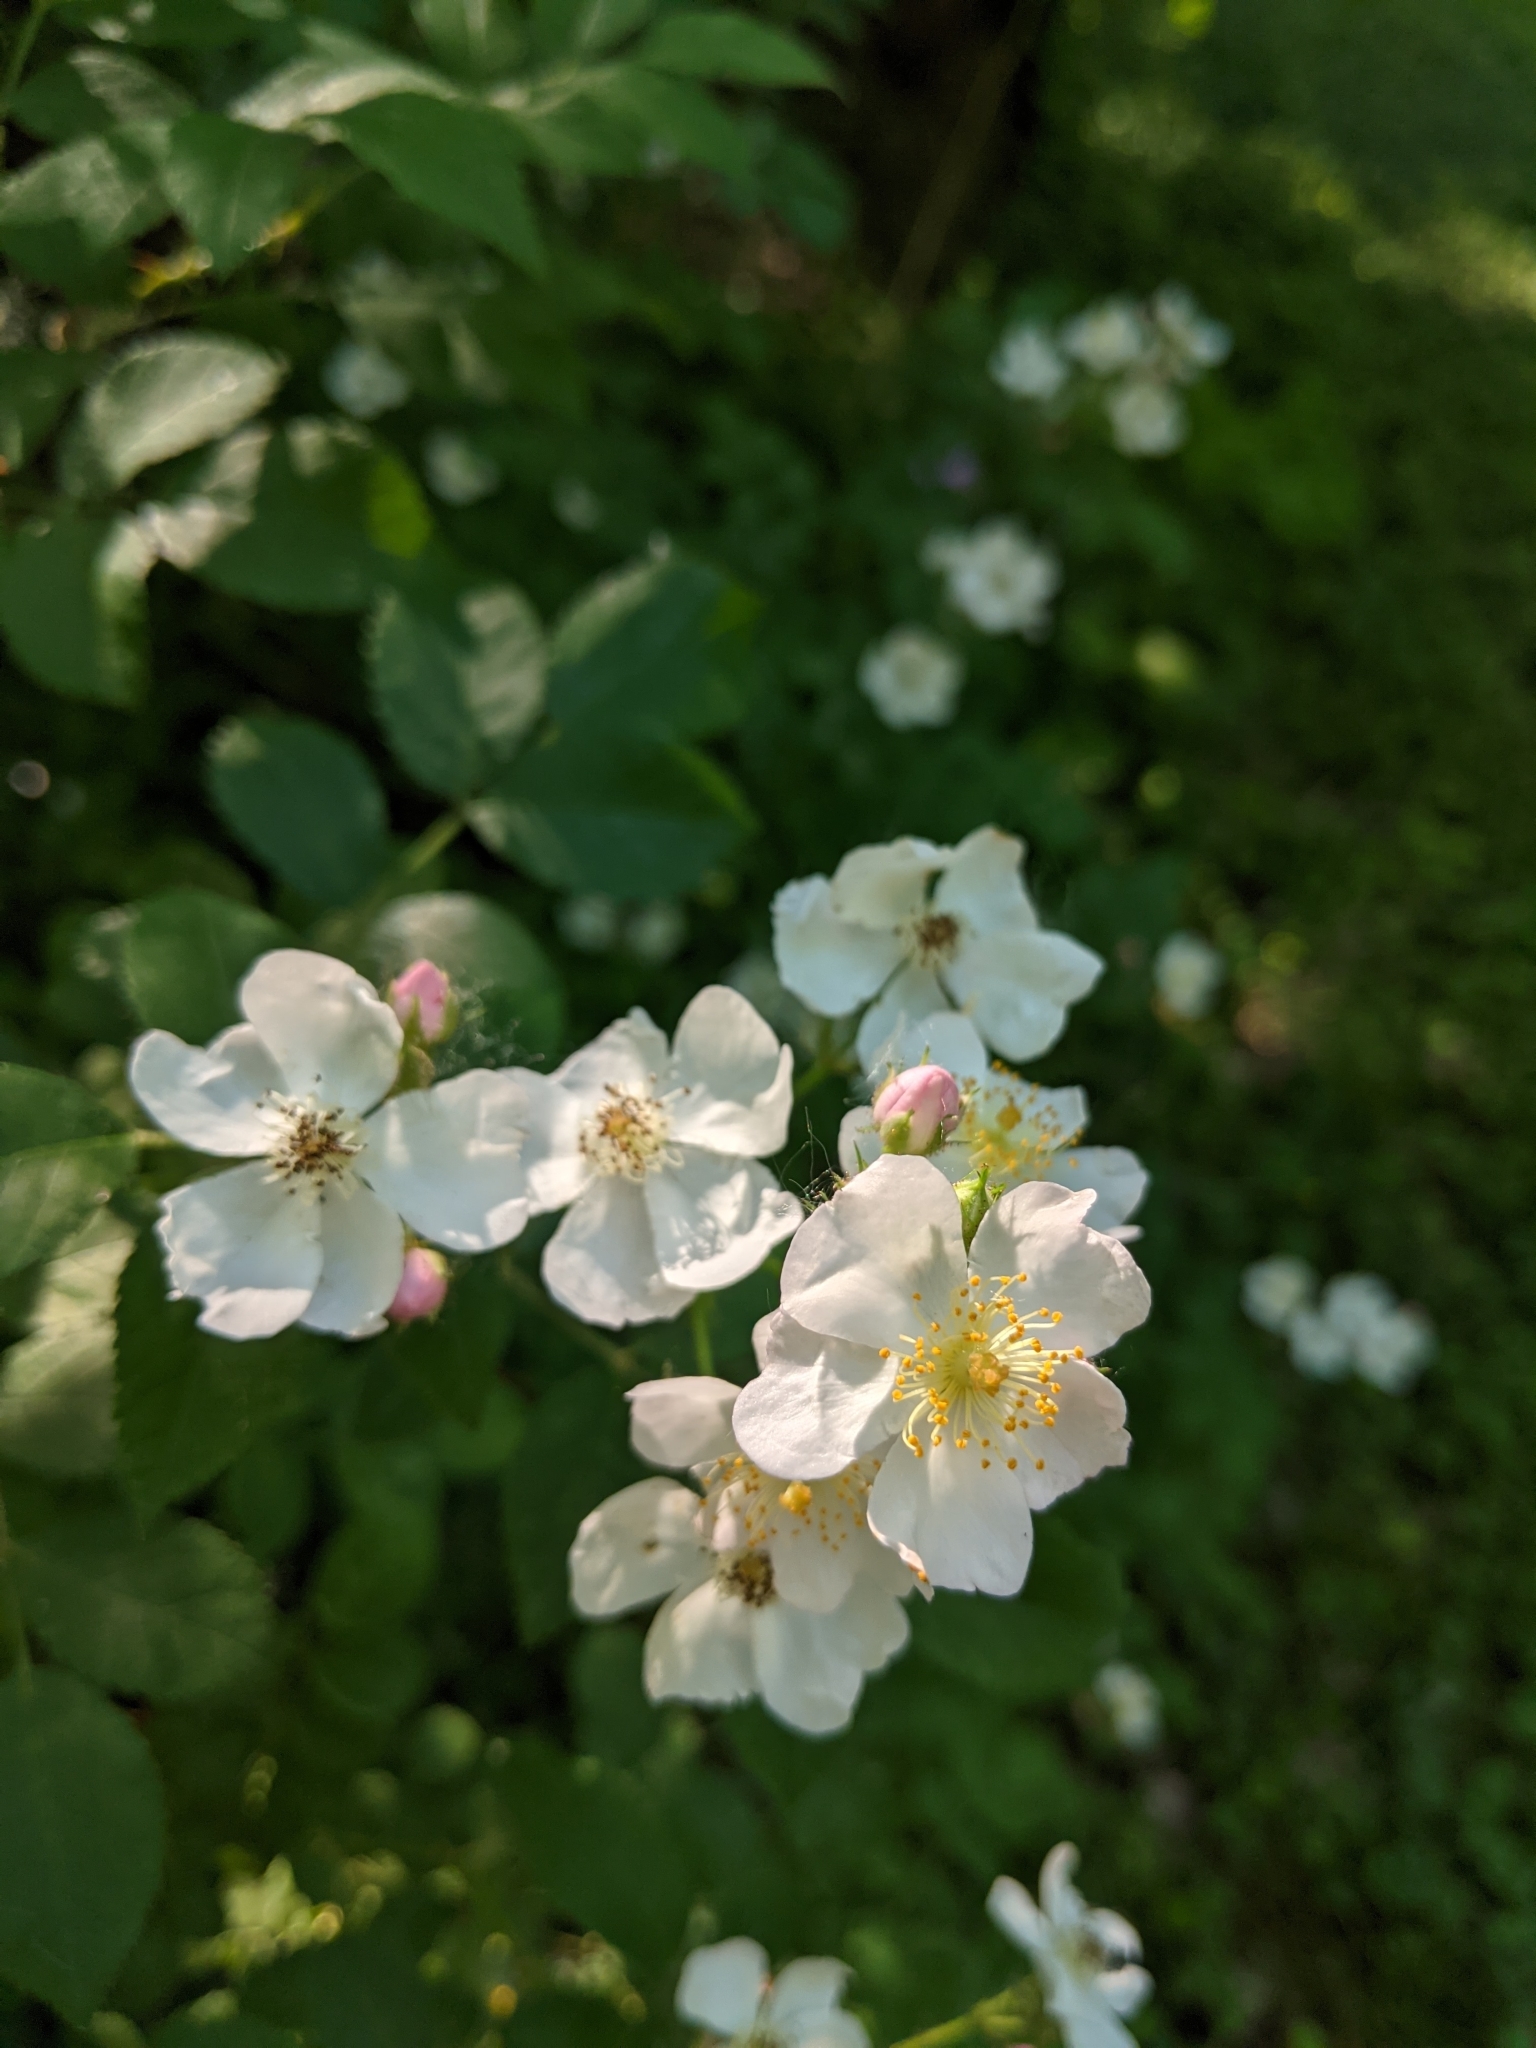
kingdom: Plantae
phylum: Tracheophyta
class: Magnoliopsida
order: Rosales
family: Rosaceae
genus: Rosa
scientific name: Rosa multiflora
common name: Multiflora rose
